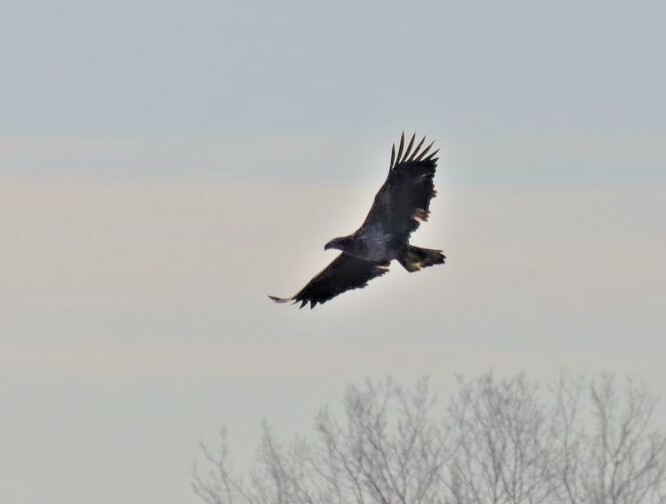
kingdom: Animalia
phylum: Chordata
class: Aves
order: Accipitriformes
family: Accipitridae
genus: Haliaeetus
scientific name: Haliaeetus leucocephalus
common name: Bald eagle
